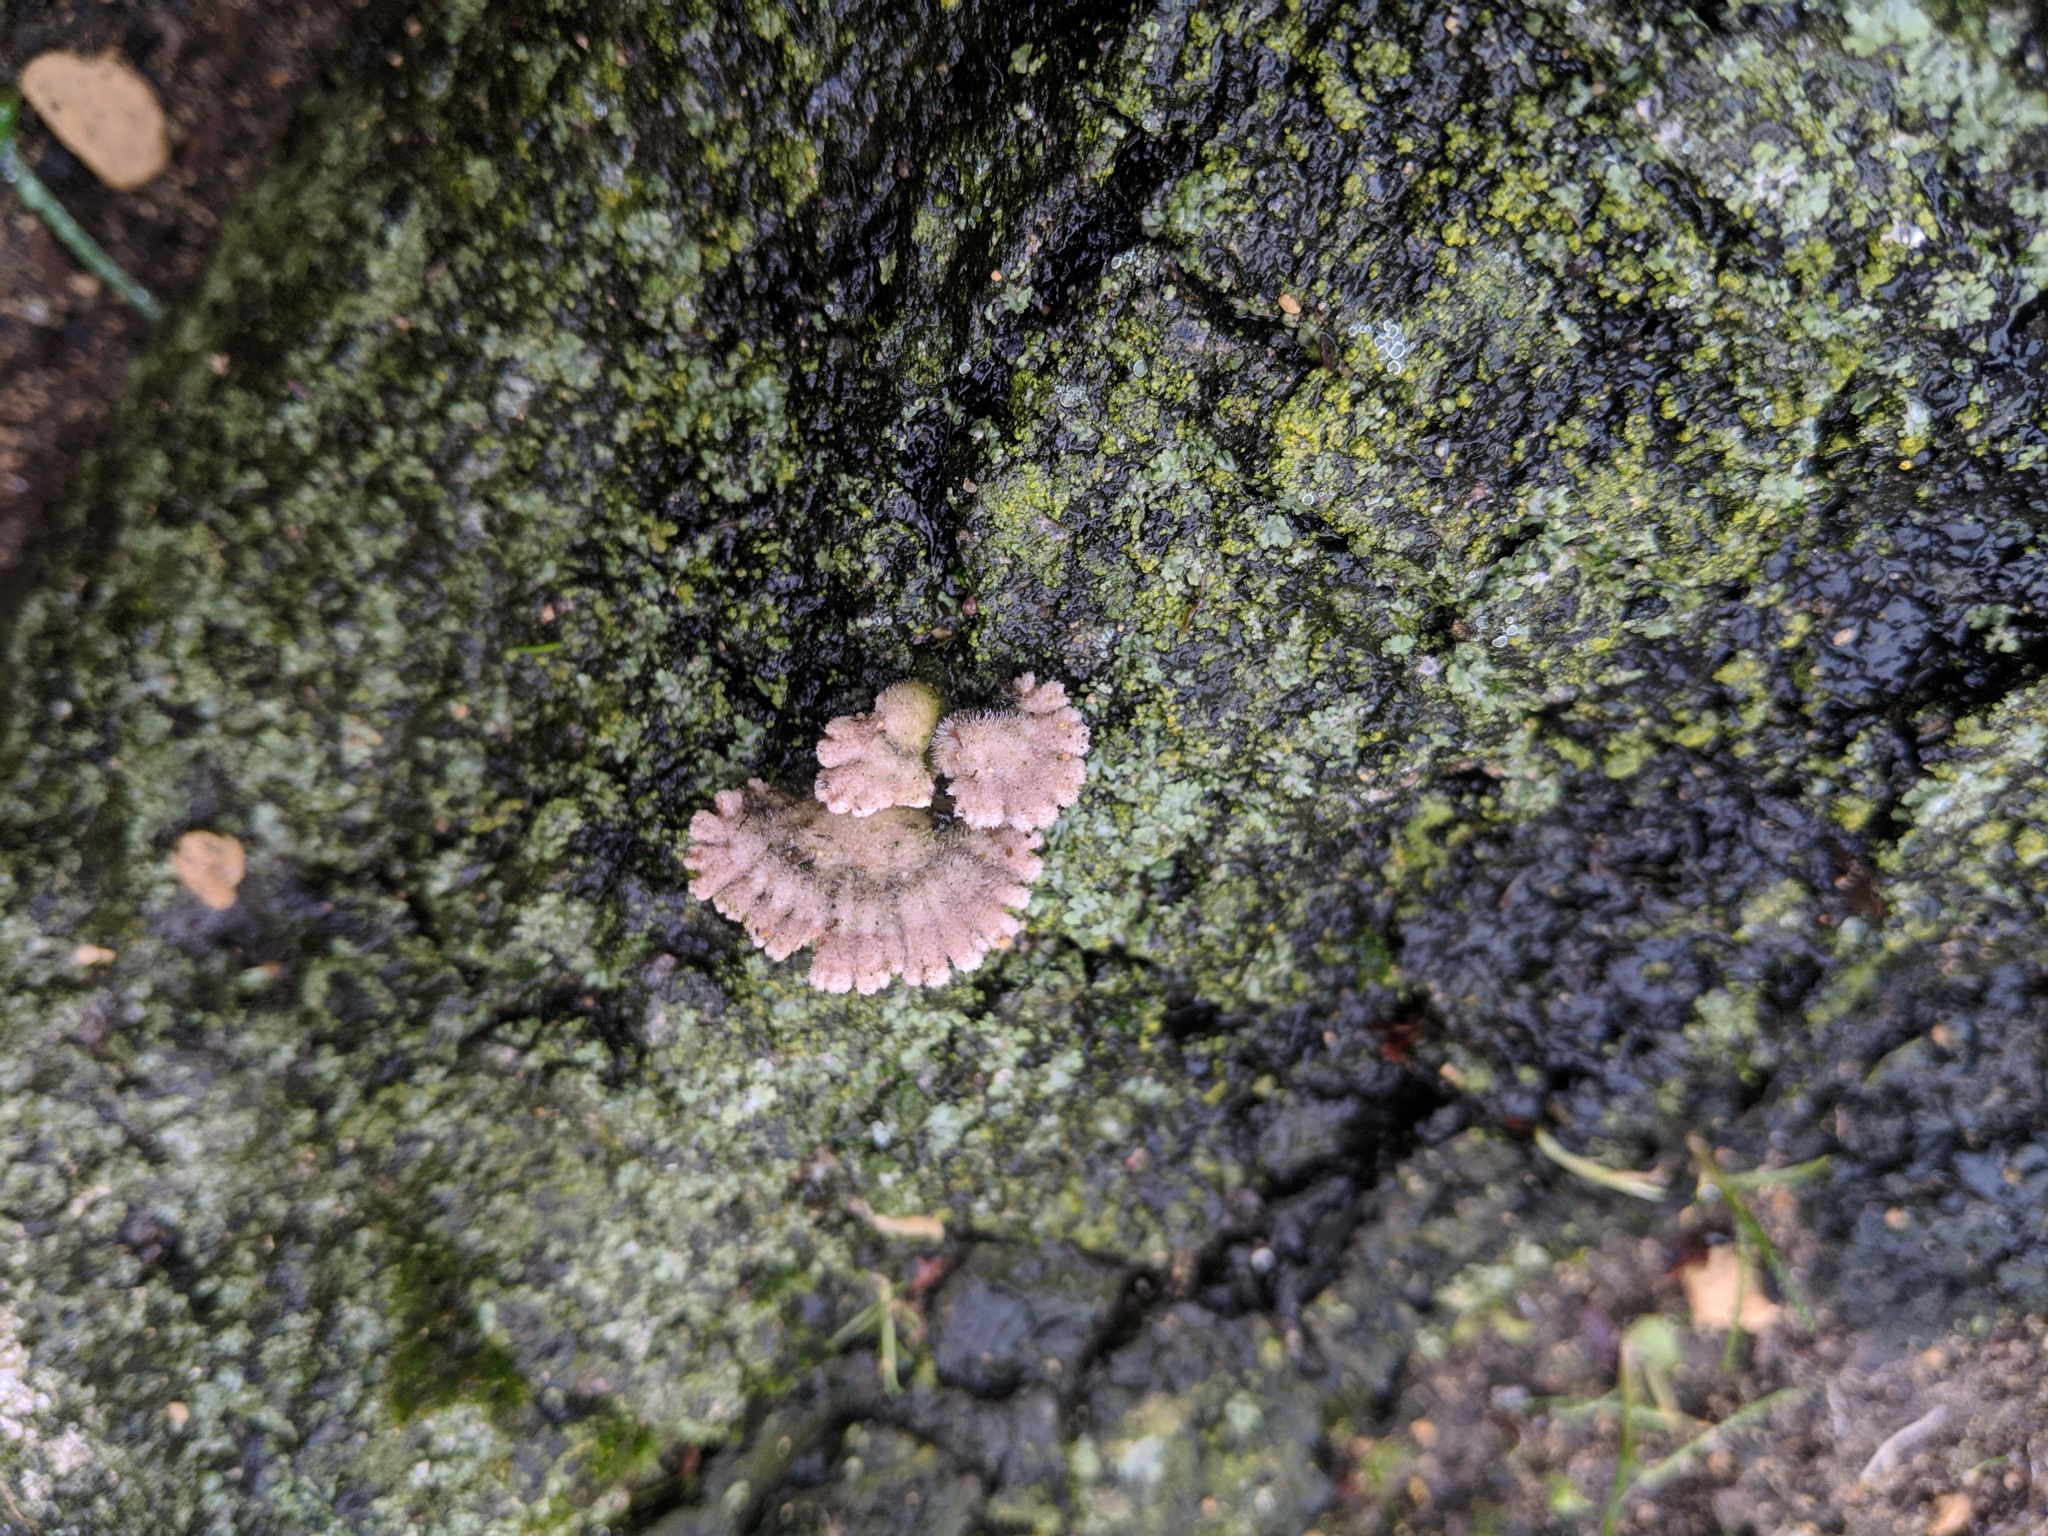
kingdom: Fungi
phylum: Basidiomycota
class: Agaricomycetes
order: Agaricales
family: Schizophyllaceae
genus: Schizophyllum
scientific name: Schizophyllum commune
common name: Common porecrust
